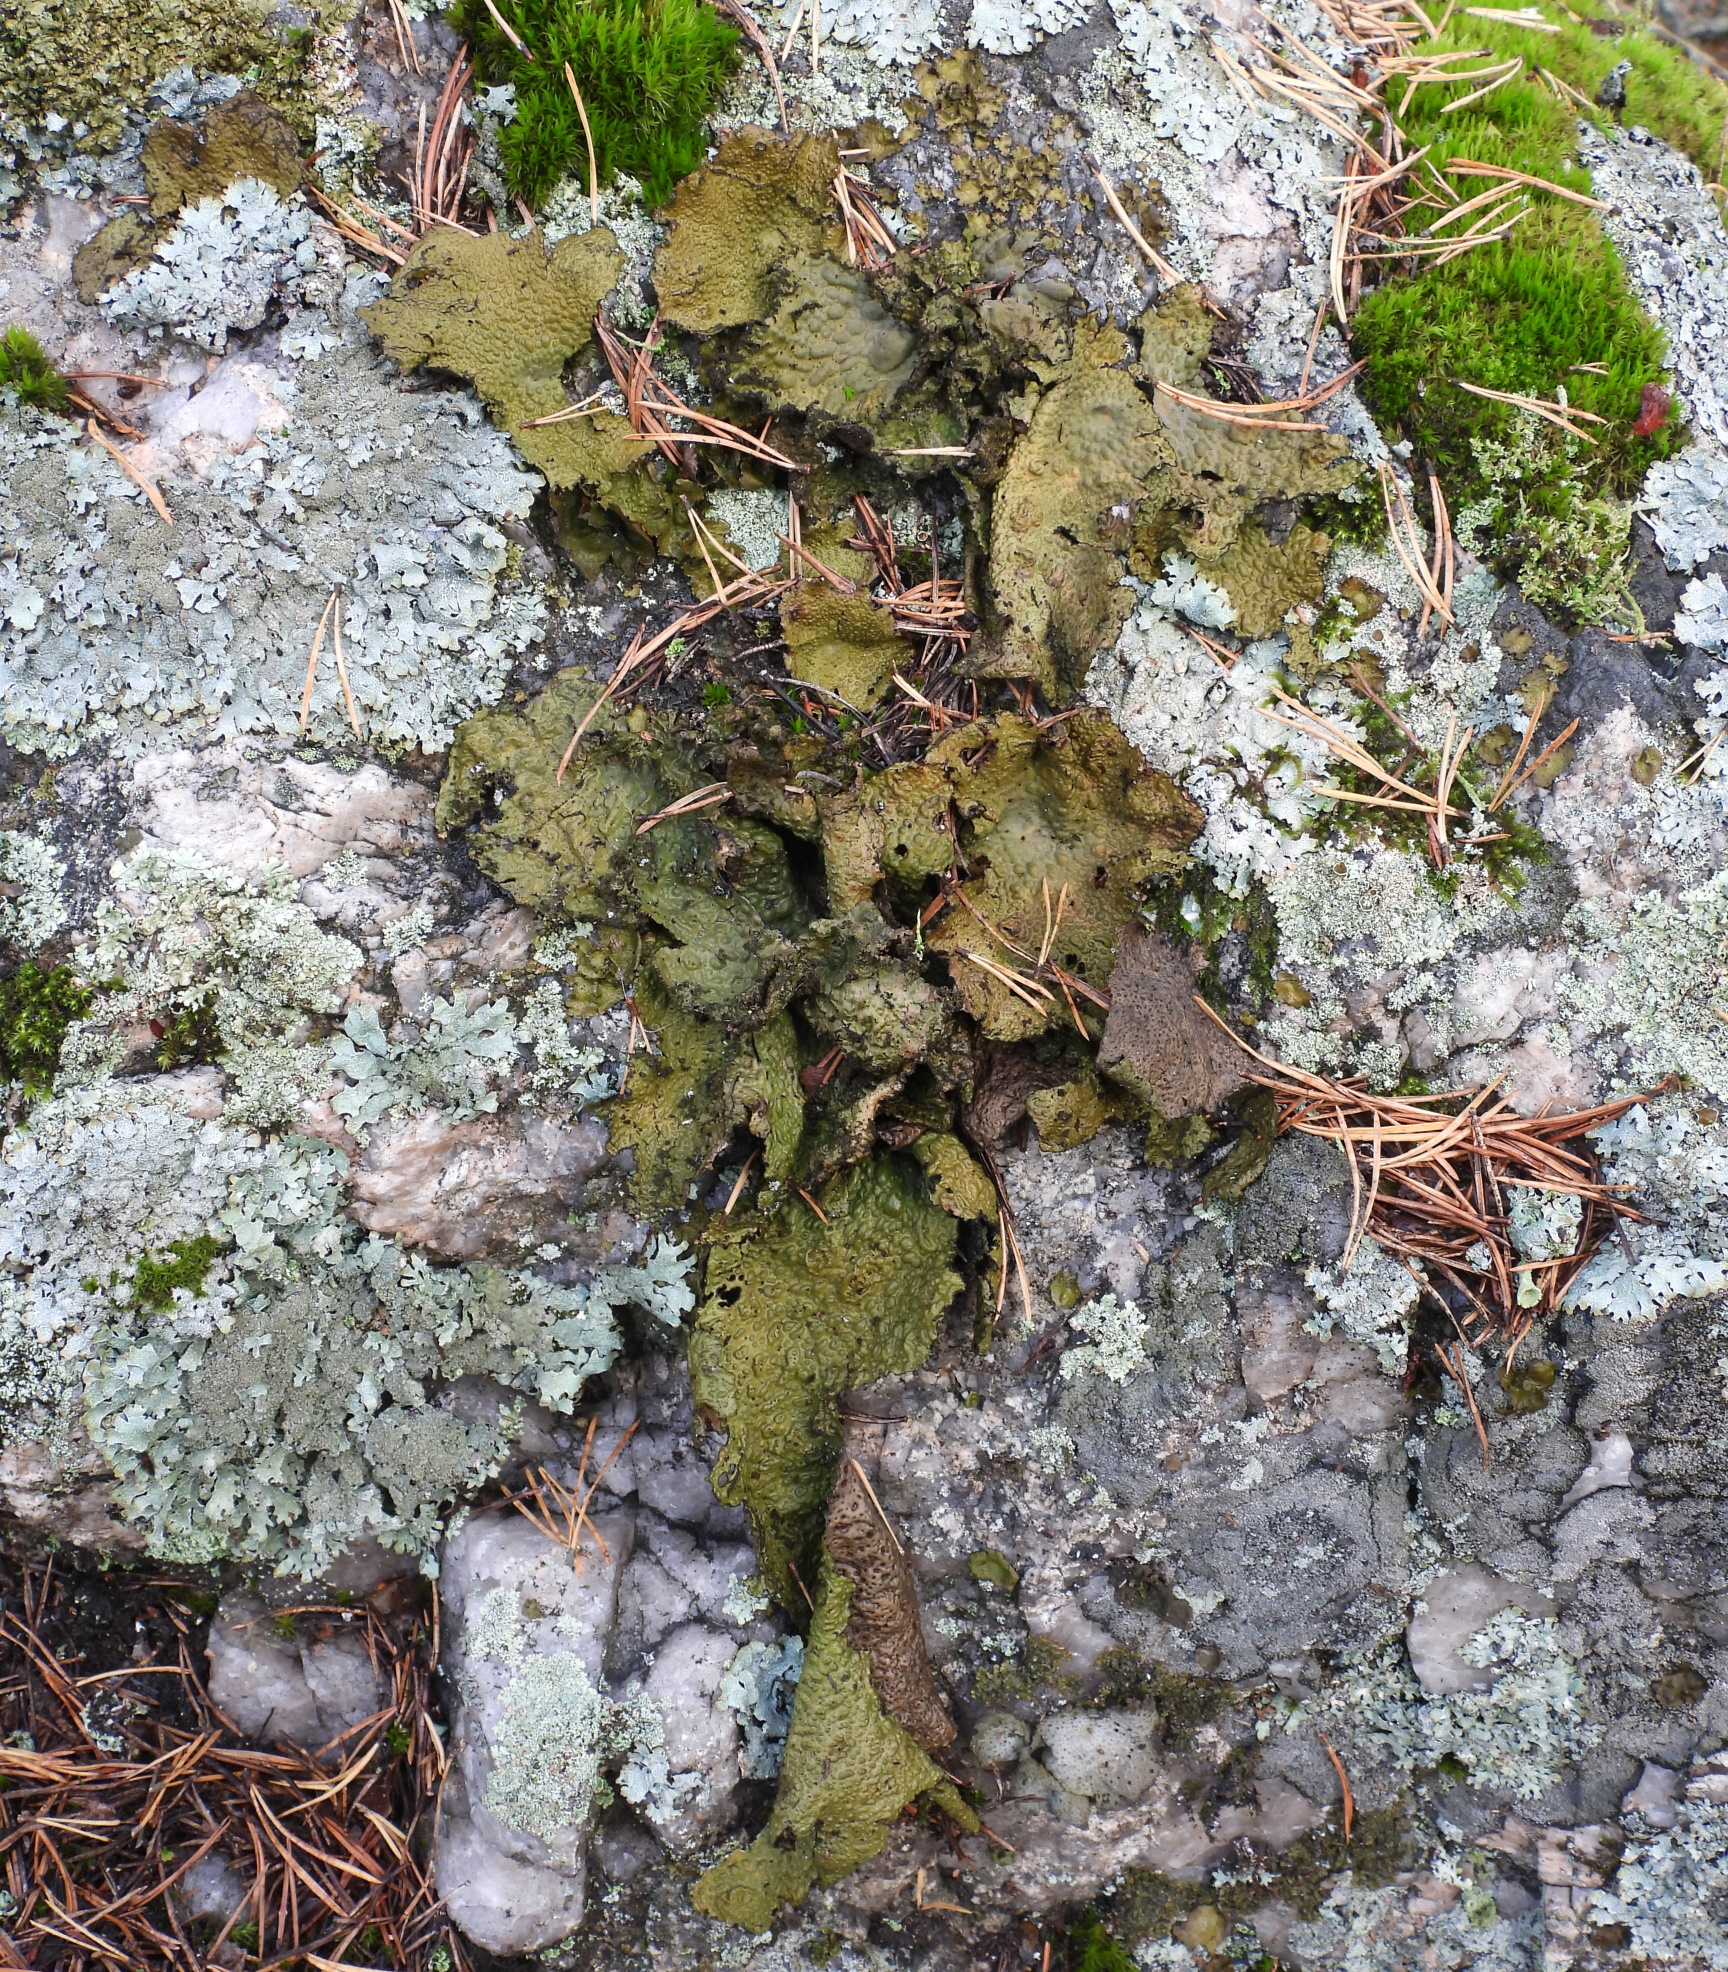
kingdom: Fungi
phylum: Ascomycota
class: Lecanoromycetes
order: Umbilicariales
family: Umbilicariaceae
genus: Lasallia
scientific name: Lasallia pustulata
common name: Blistered toadskin lichen
